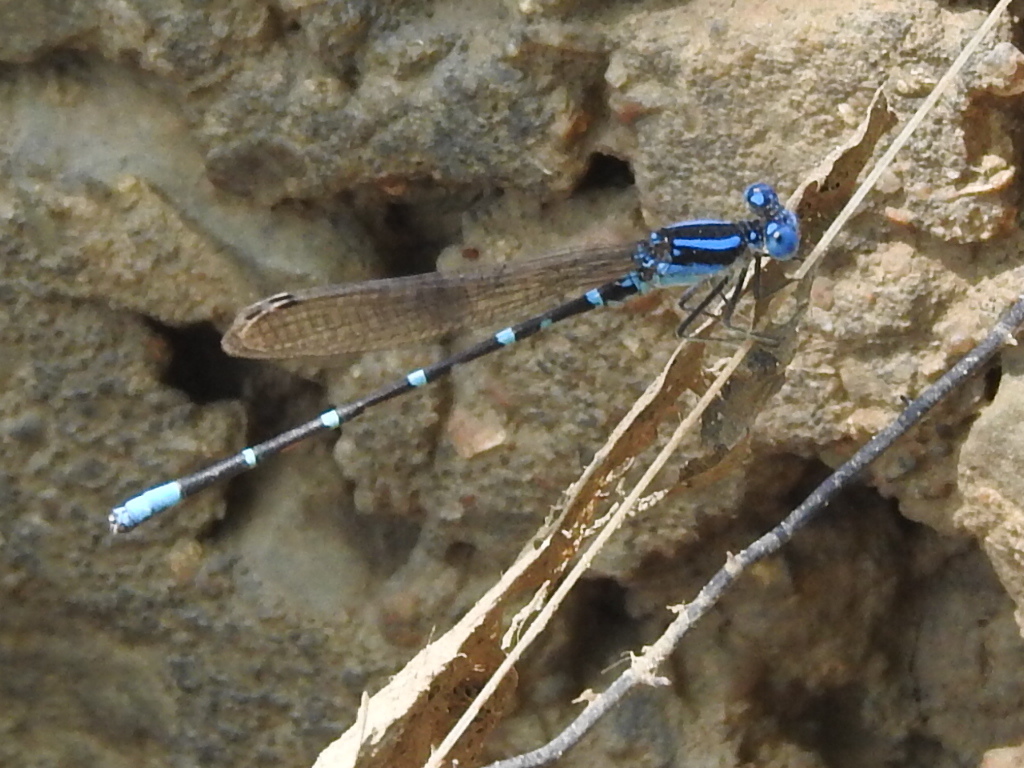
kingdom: Animalia
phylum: Arthropoda
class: Insecta
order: Odonata
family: Coenagrionidae
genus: Argia
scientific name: Argia sedula
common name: Blue-ringed dancer
